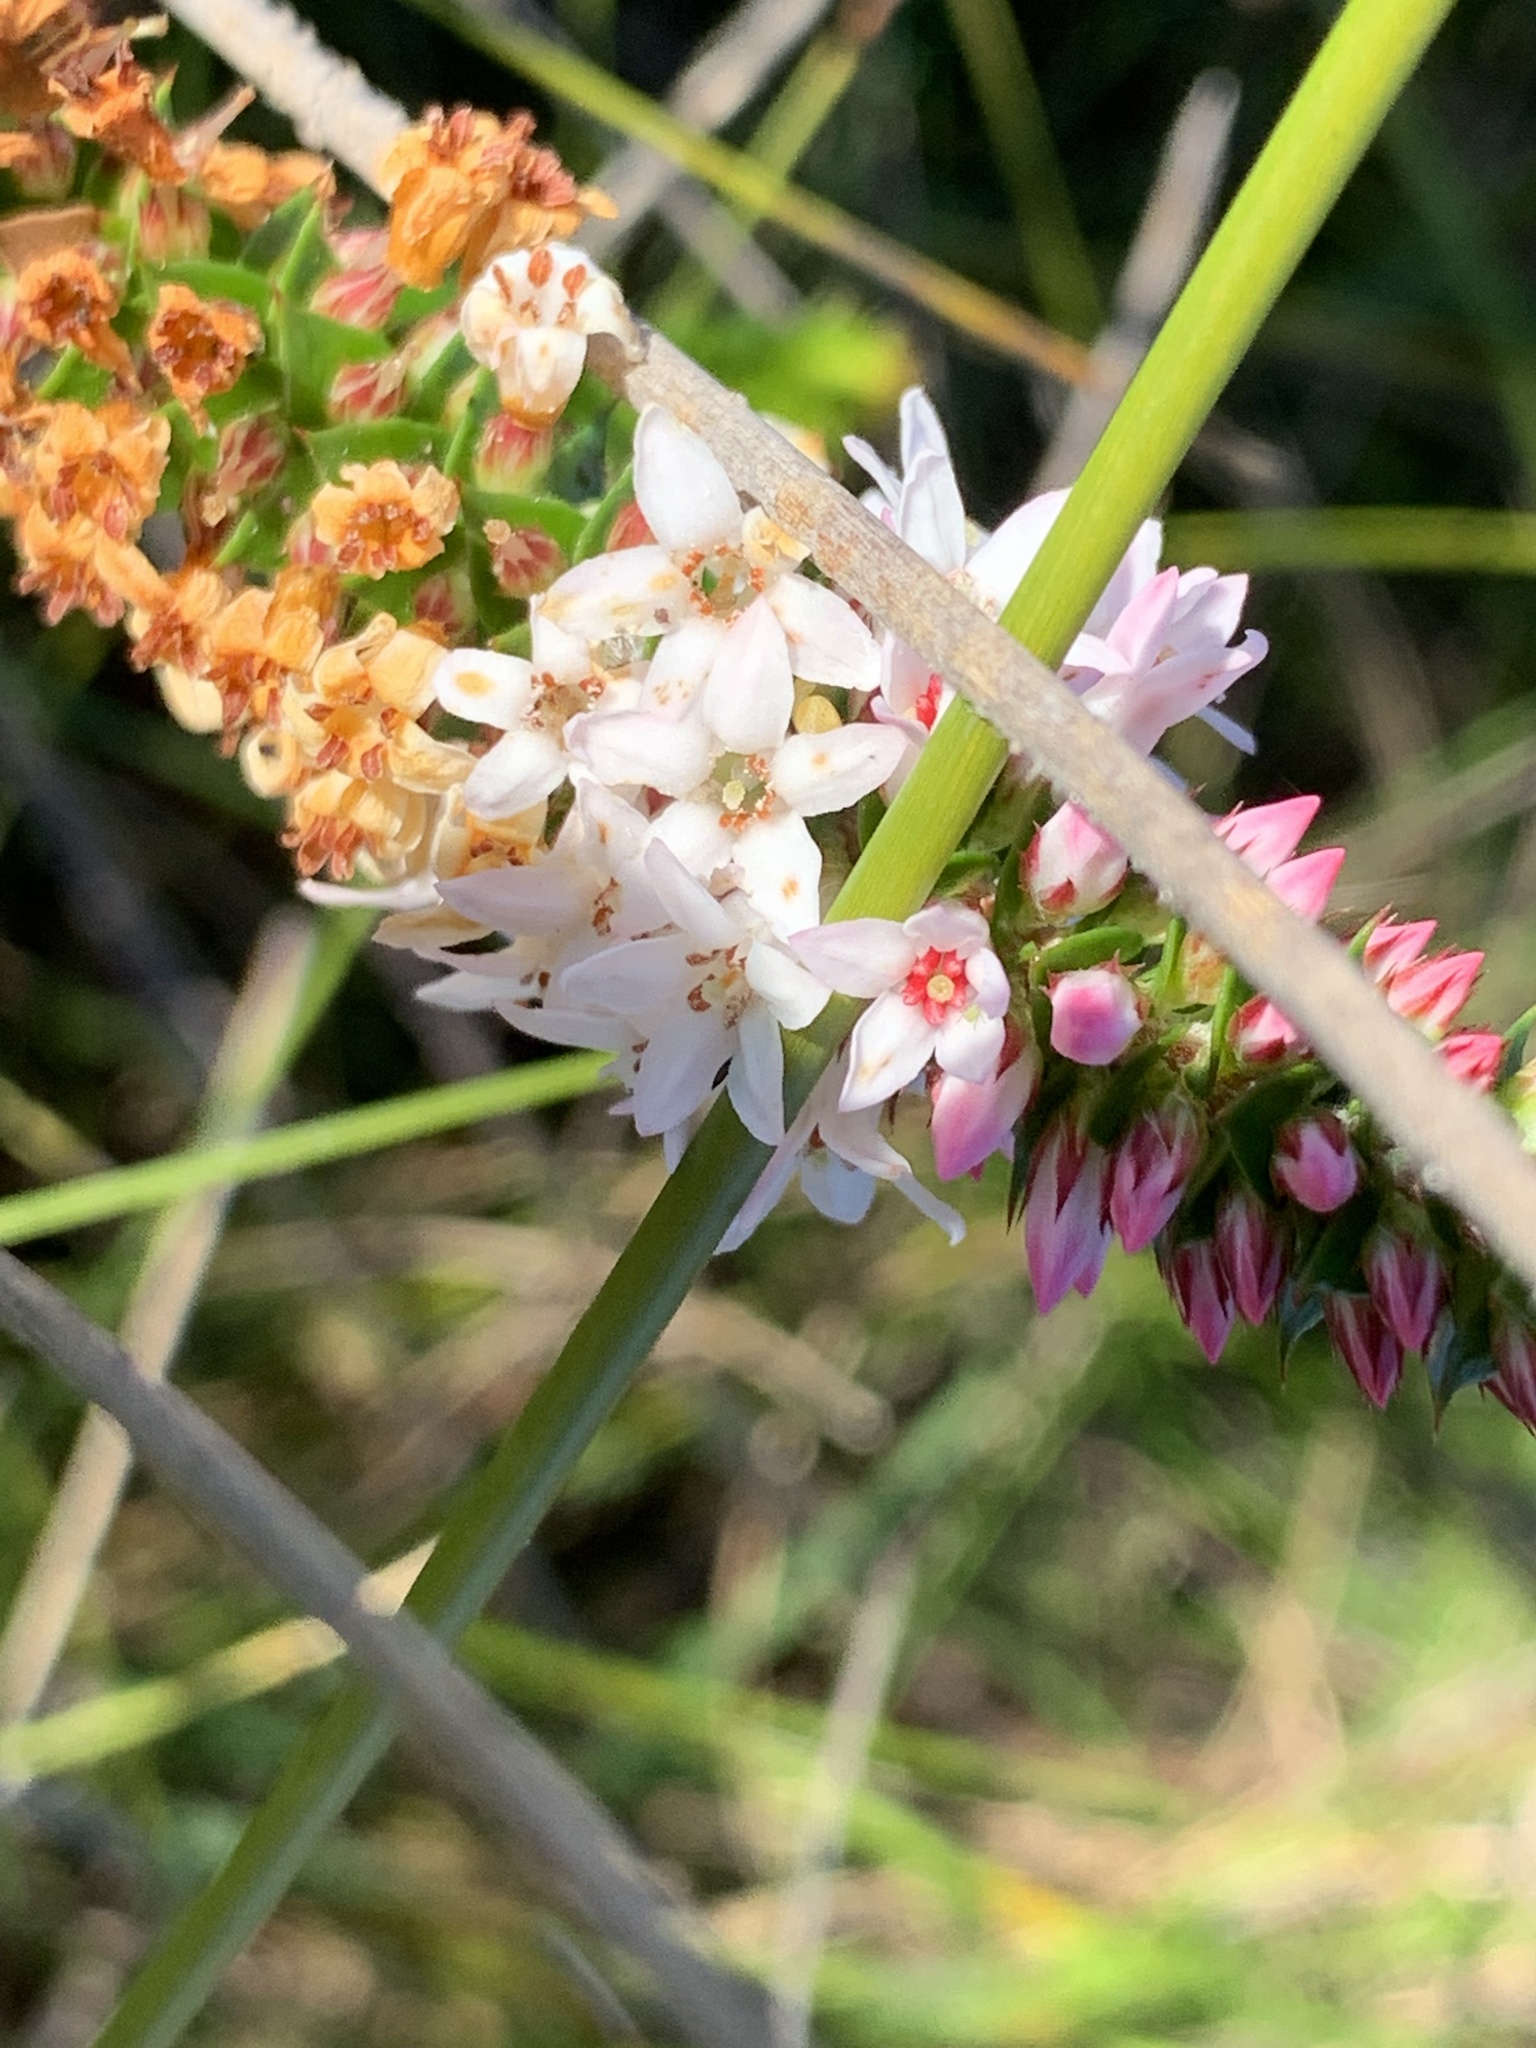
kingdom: Plantae
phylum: Tracheophyta
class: Magnoliopsida
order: Ericales
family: Ericaceae
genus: Epacris
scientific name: Epacris pulchella
